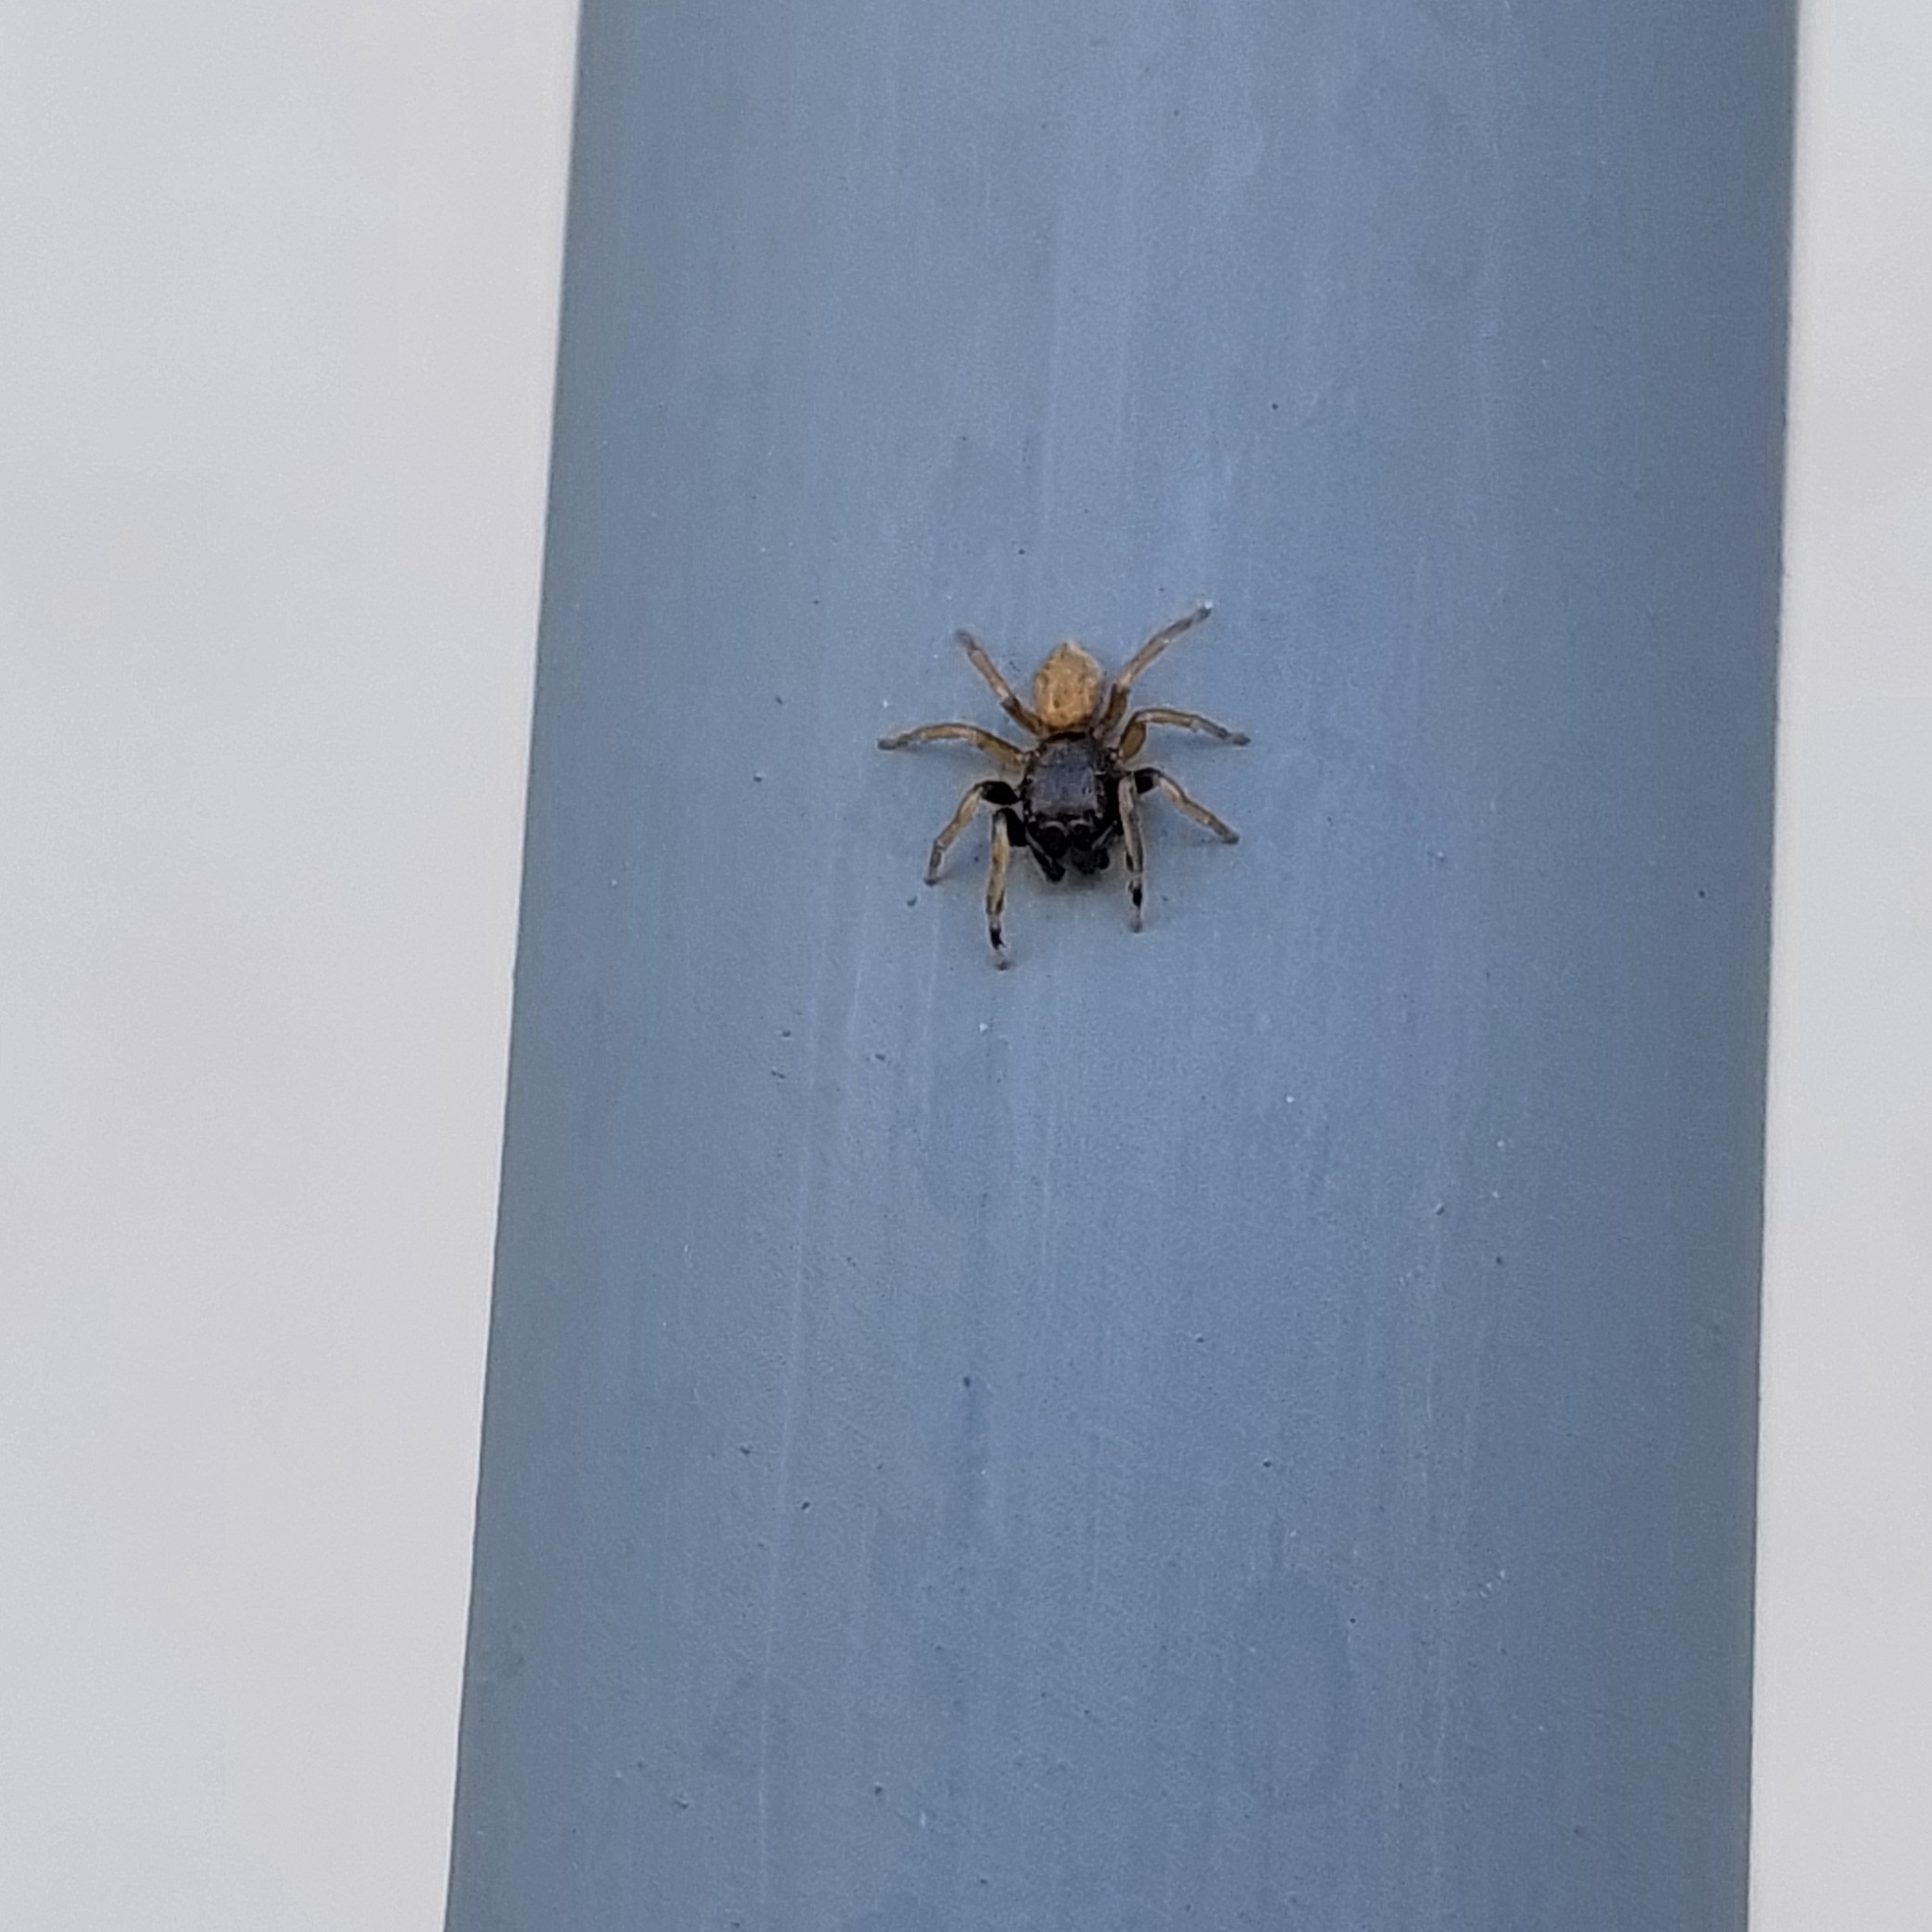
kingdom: Animalia
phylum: Arthropoda
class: Arachnida
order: Araneae
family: Salticidae
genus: Euophrys
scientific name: Euophrys melanoleuca
